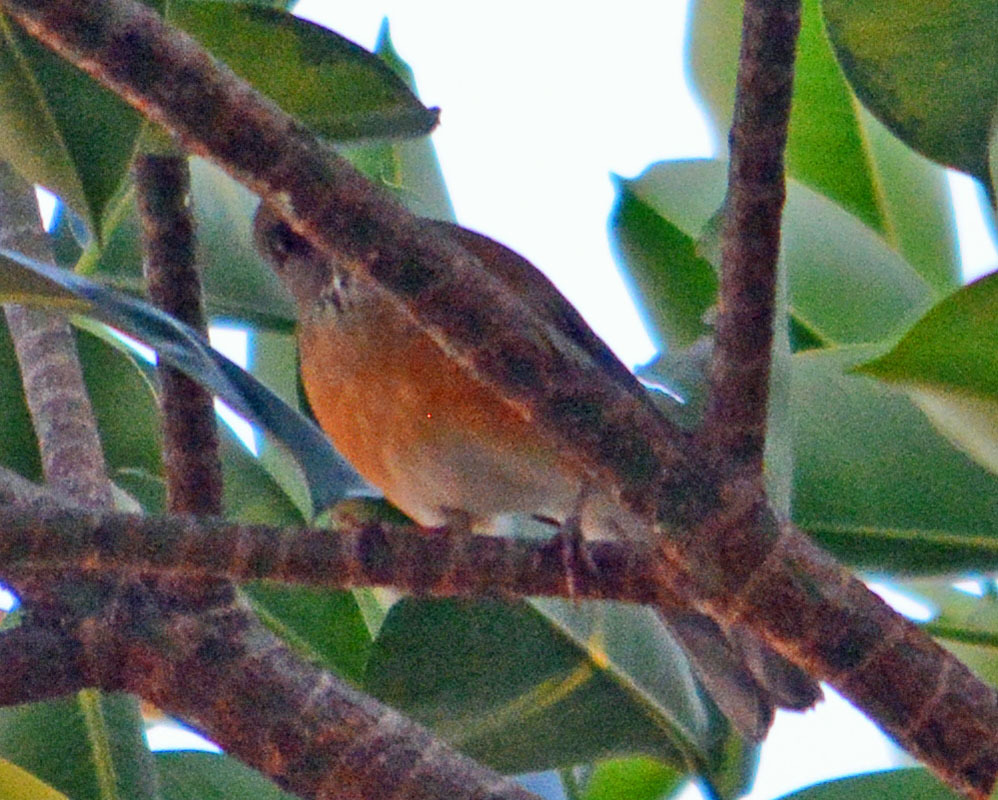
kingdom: Animalia
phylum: Chordata
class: Aves
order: Passeriformes
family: Turdidae
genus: Turdus
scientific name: Turdus rufopalliatus
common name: Rufous-backed robin
